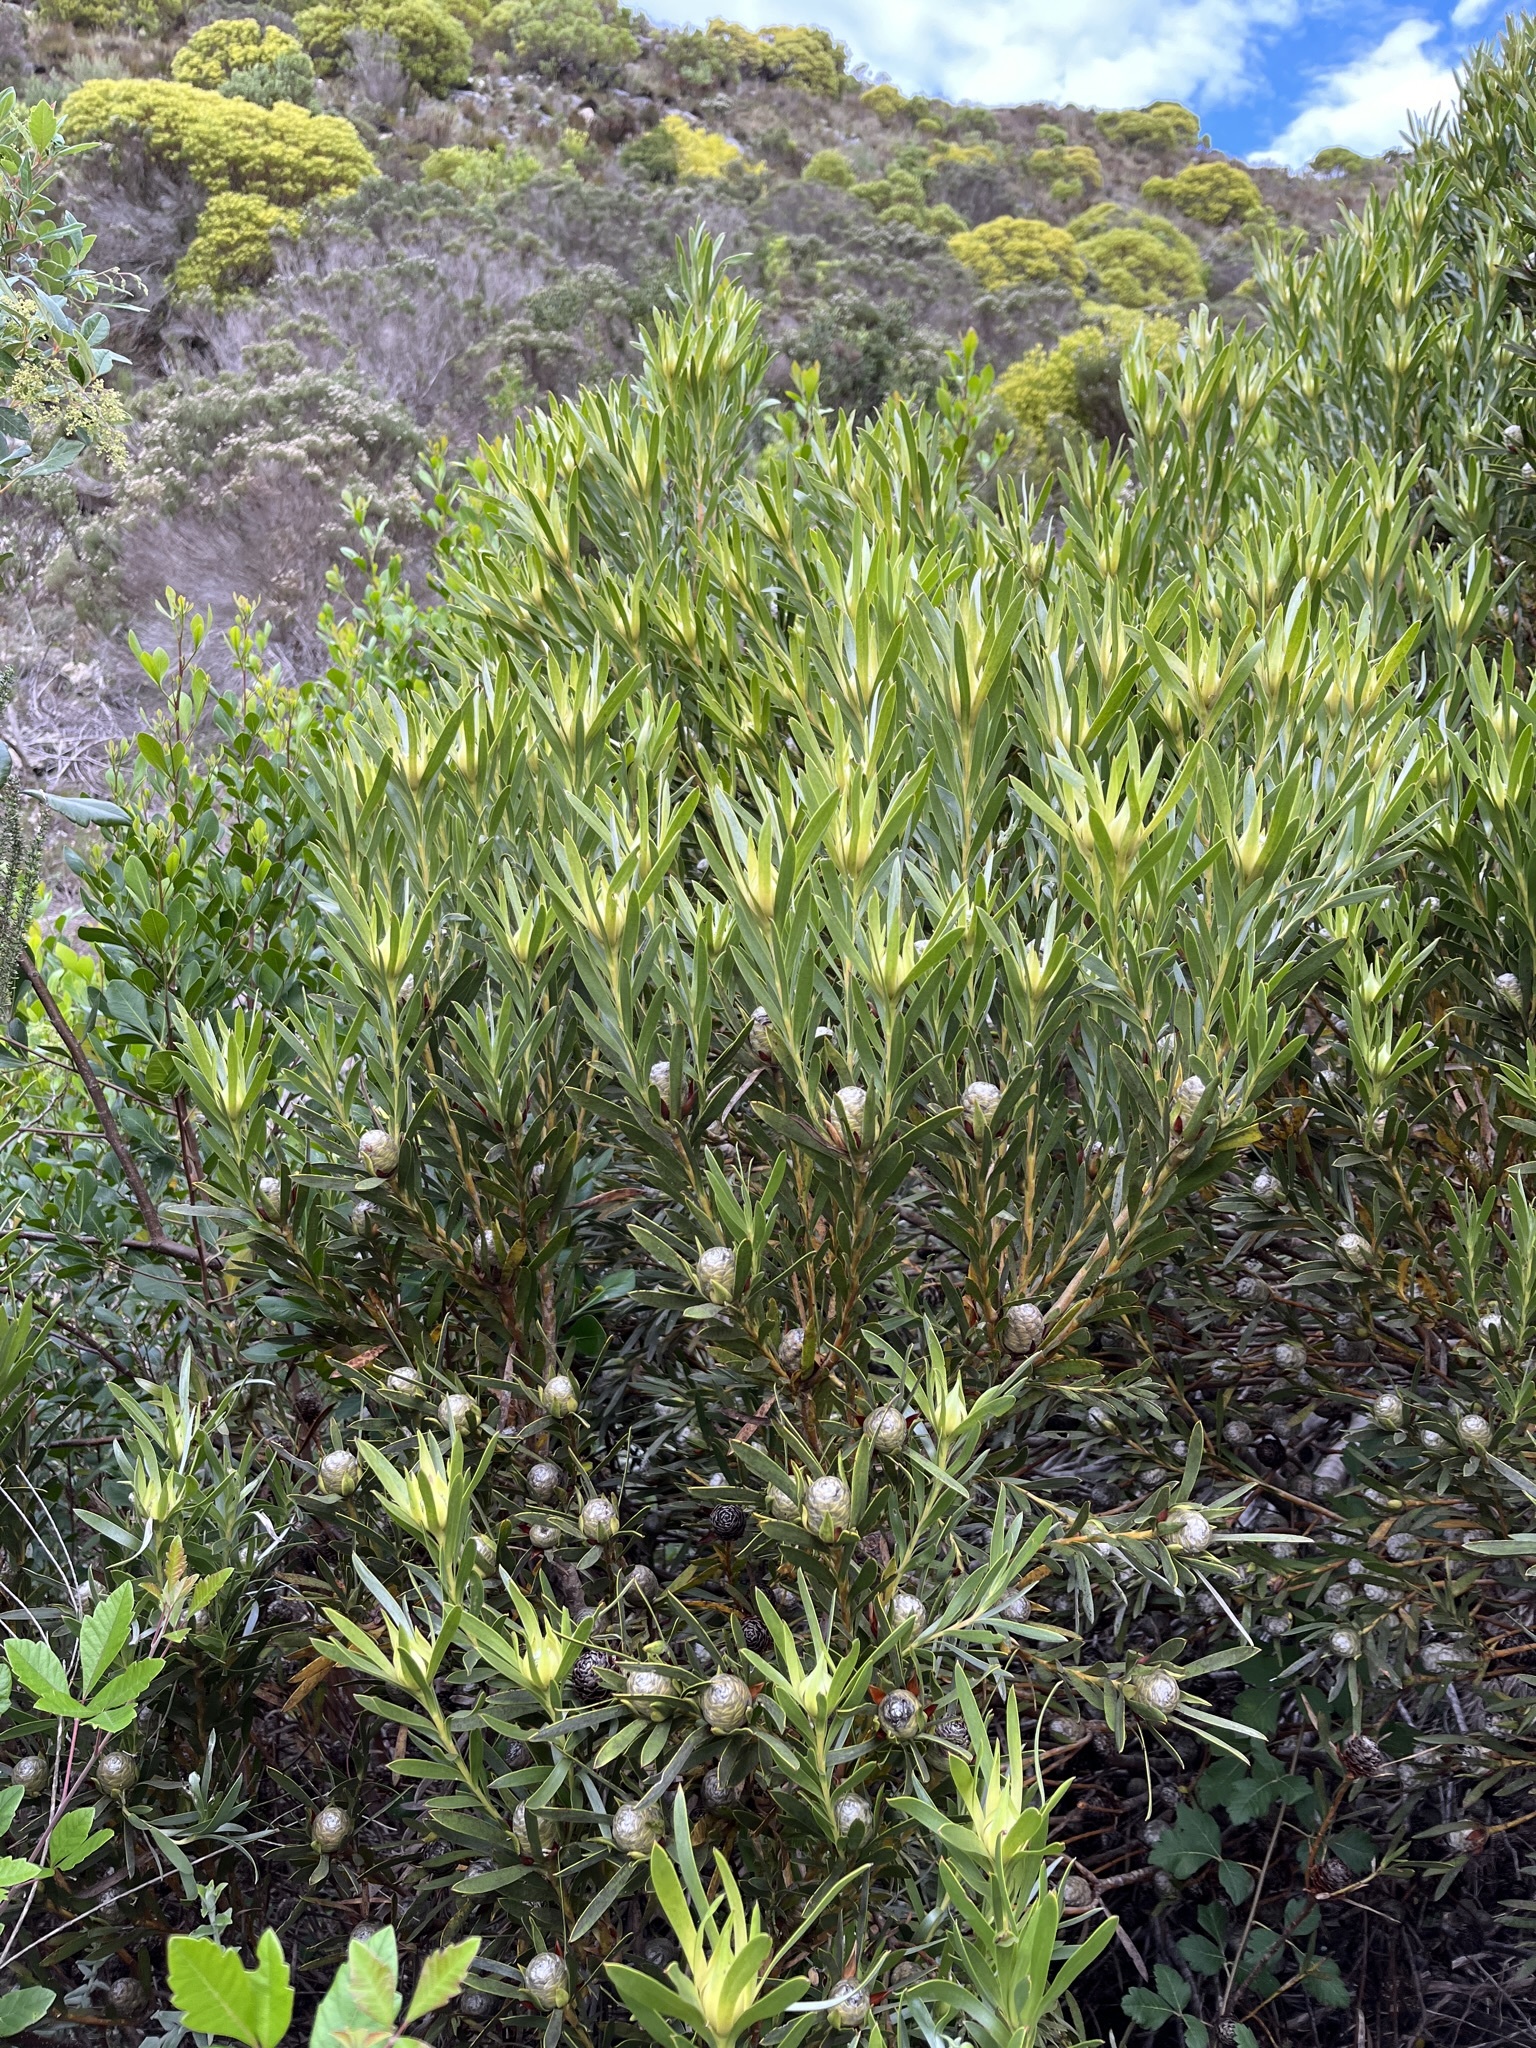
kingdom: Plantae
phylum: Tracheophyta
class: Magnoliopsida
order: Proteales
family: Proteaceae
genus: Leucadendron
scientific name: Leucadendron meridianum
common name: Limestone conebush
